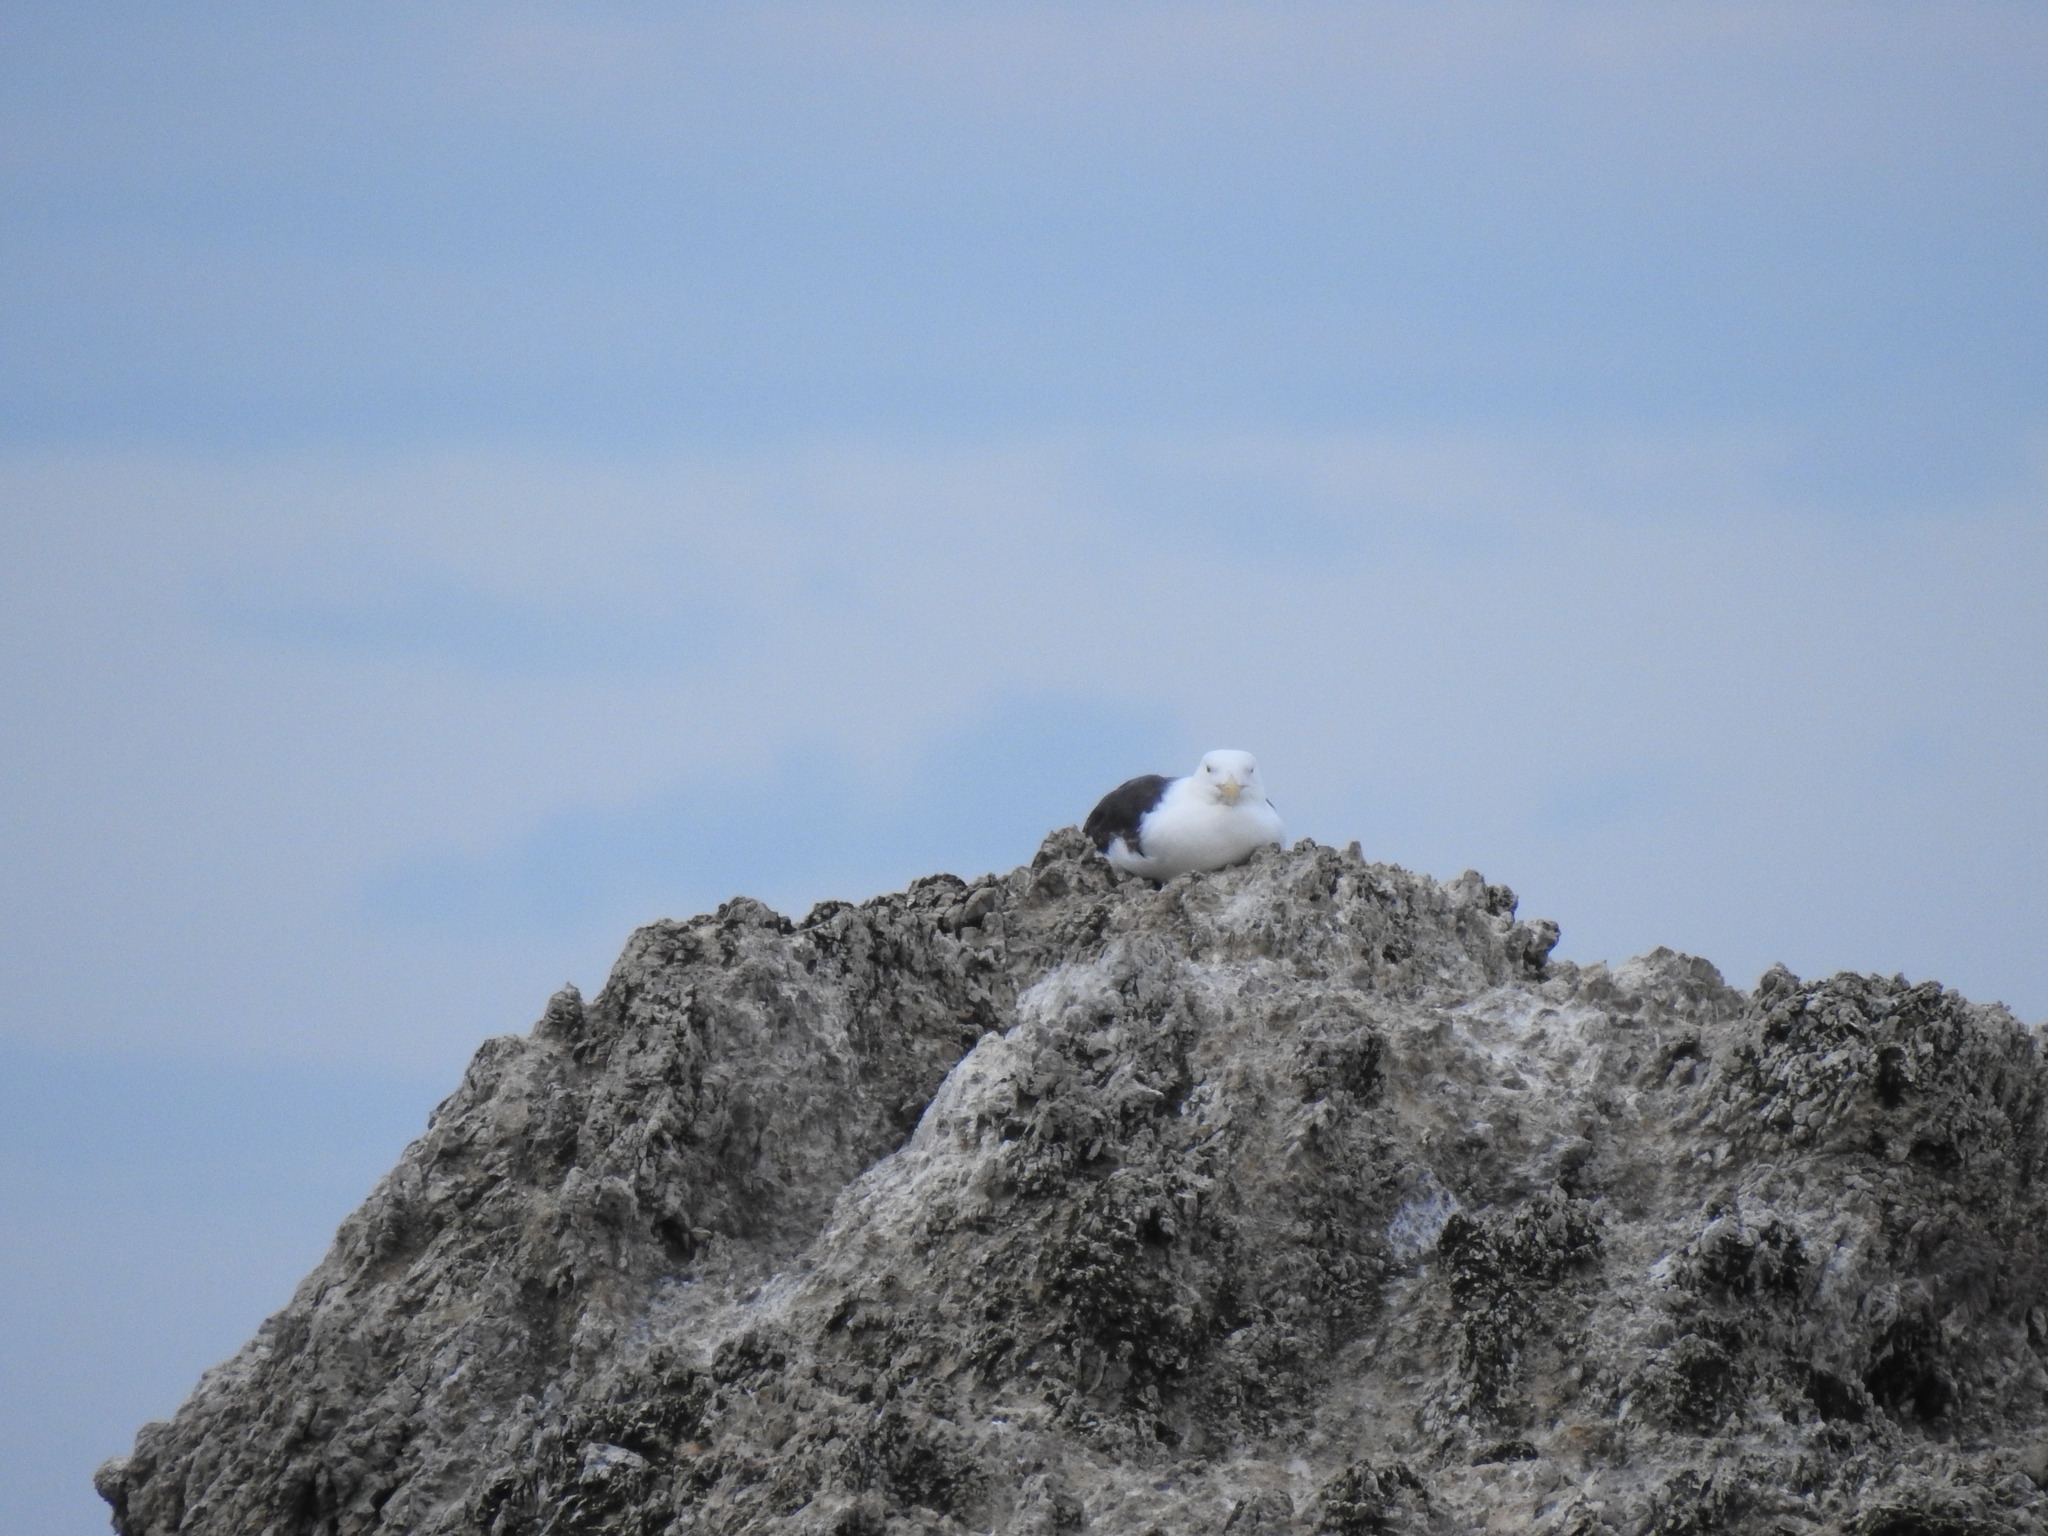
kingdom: Animalia
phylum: Chordata
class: Aves
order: Charadriiformes
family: Laridae
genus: Larus
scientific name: Larus marinus
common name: Great black-backed gull
